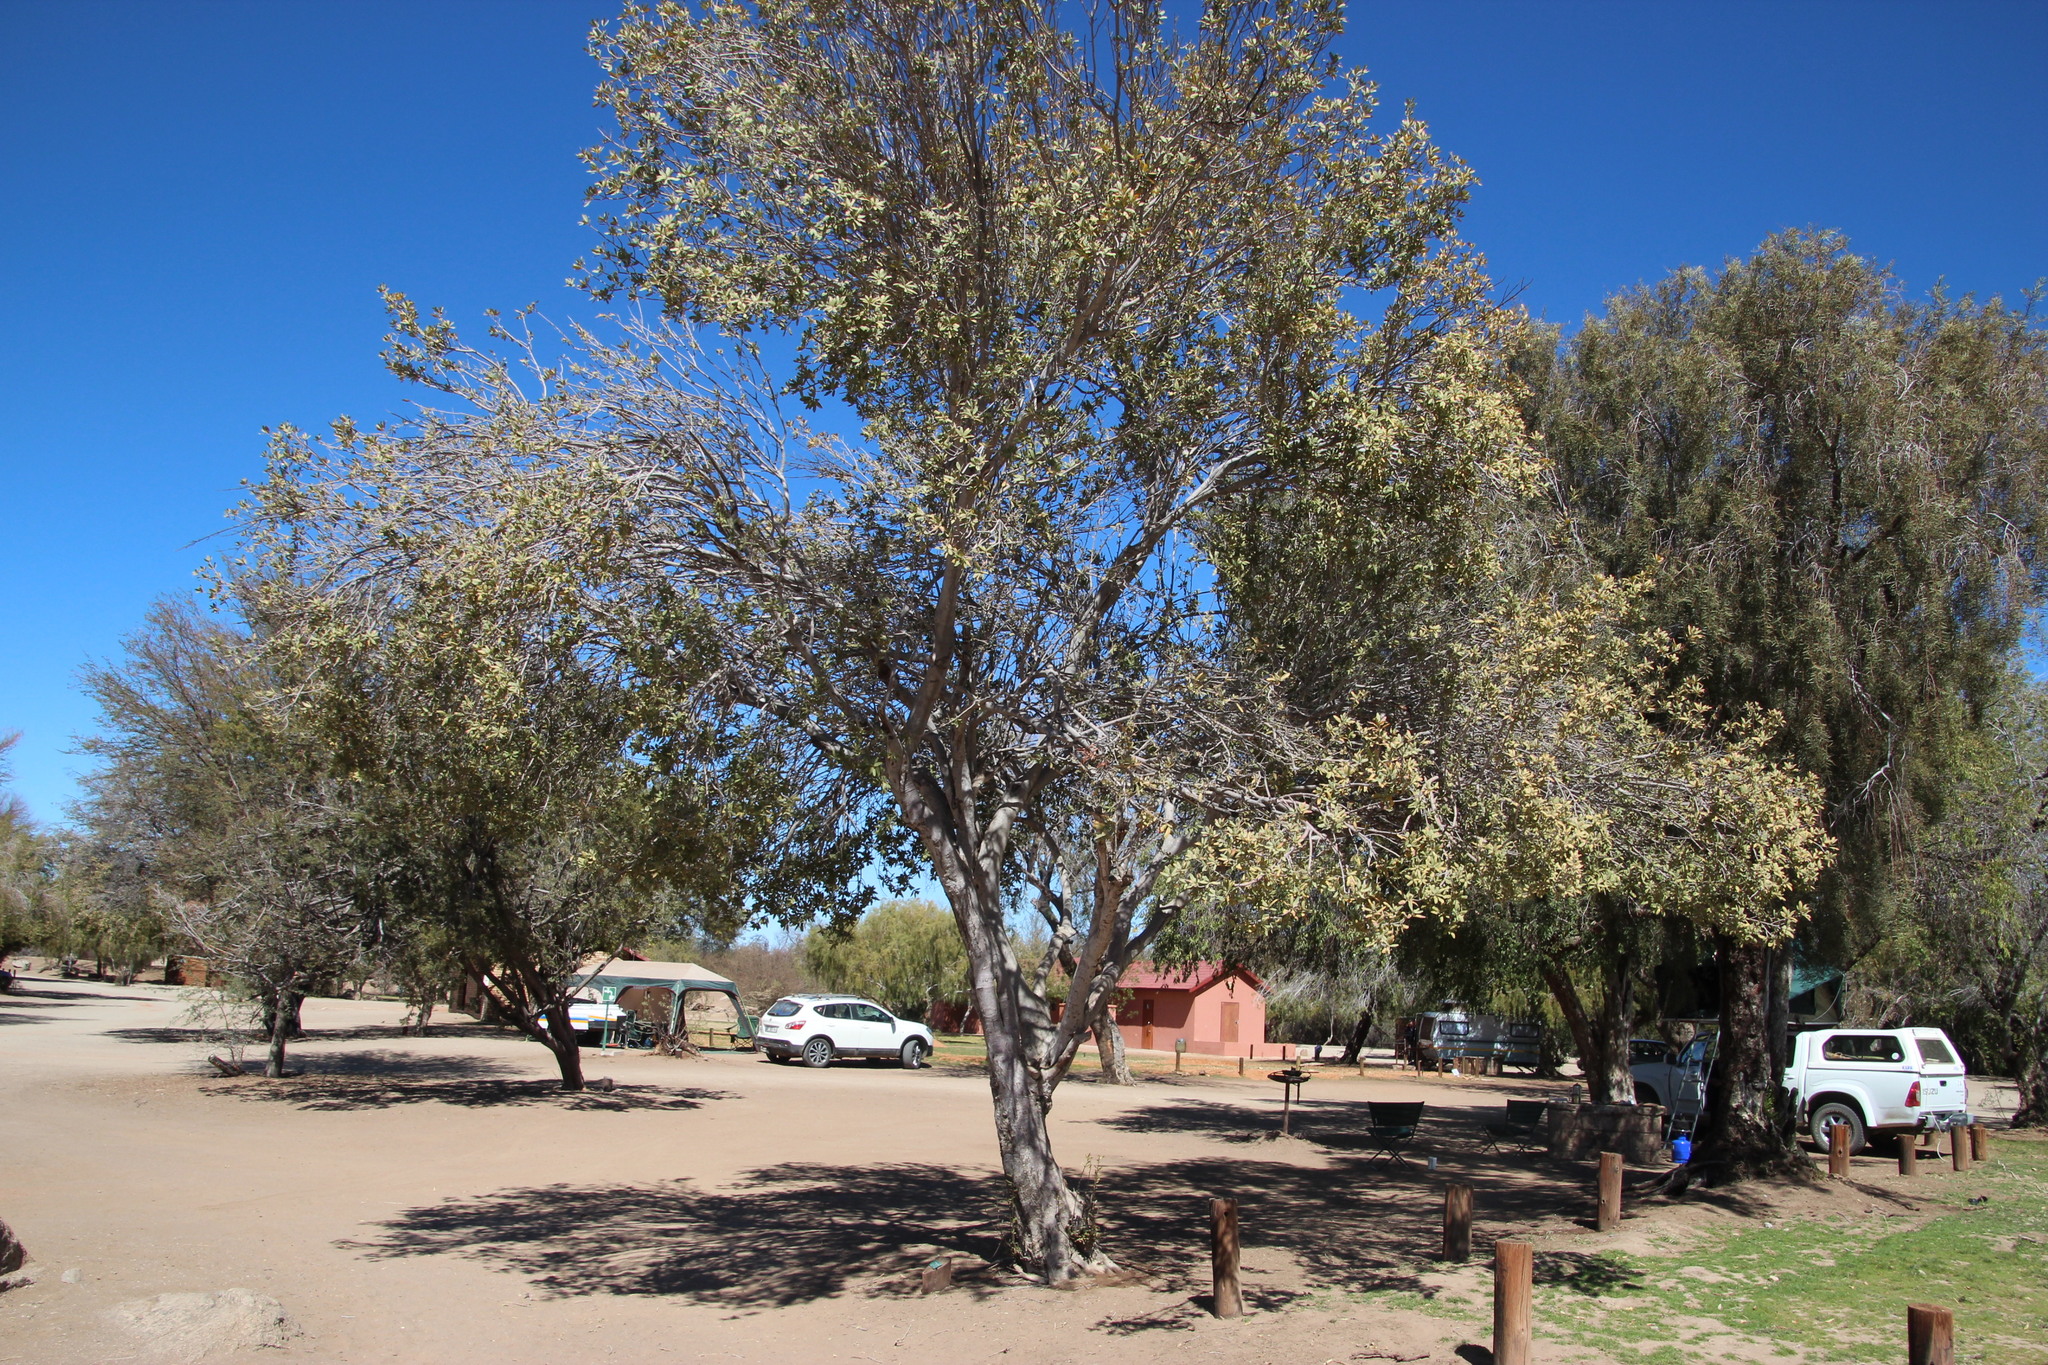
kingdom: Plantae
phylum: Tracheophyta
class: Magnoliopsida
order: Sapindales
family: Sapindaceae
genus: Pappea
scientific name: Pappea capensis
